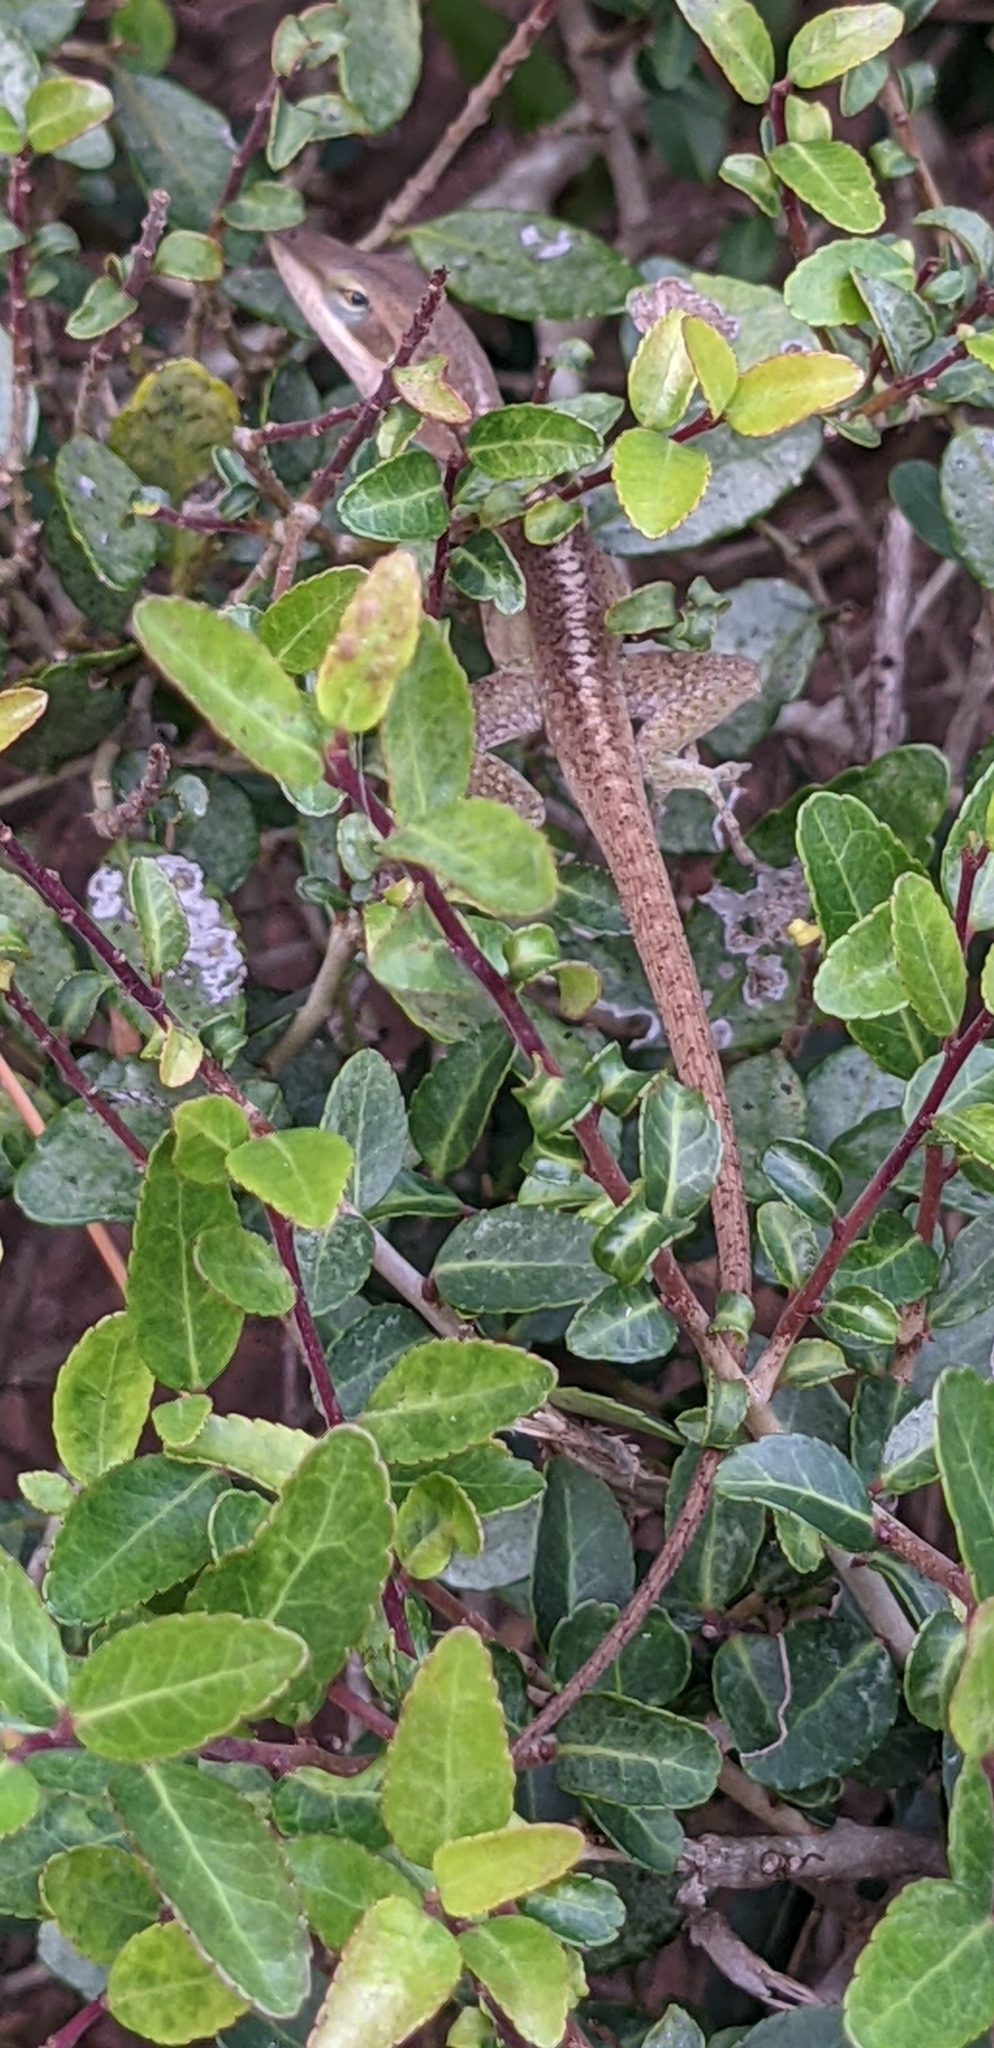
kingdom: Animalia
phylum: Chordata
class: Squamata
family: Dactyloidae
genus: Anolis
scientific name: Anolis carolinensis
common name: Green anole
